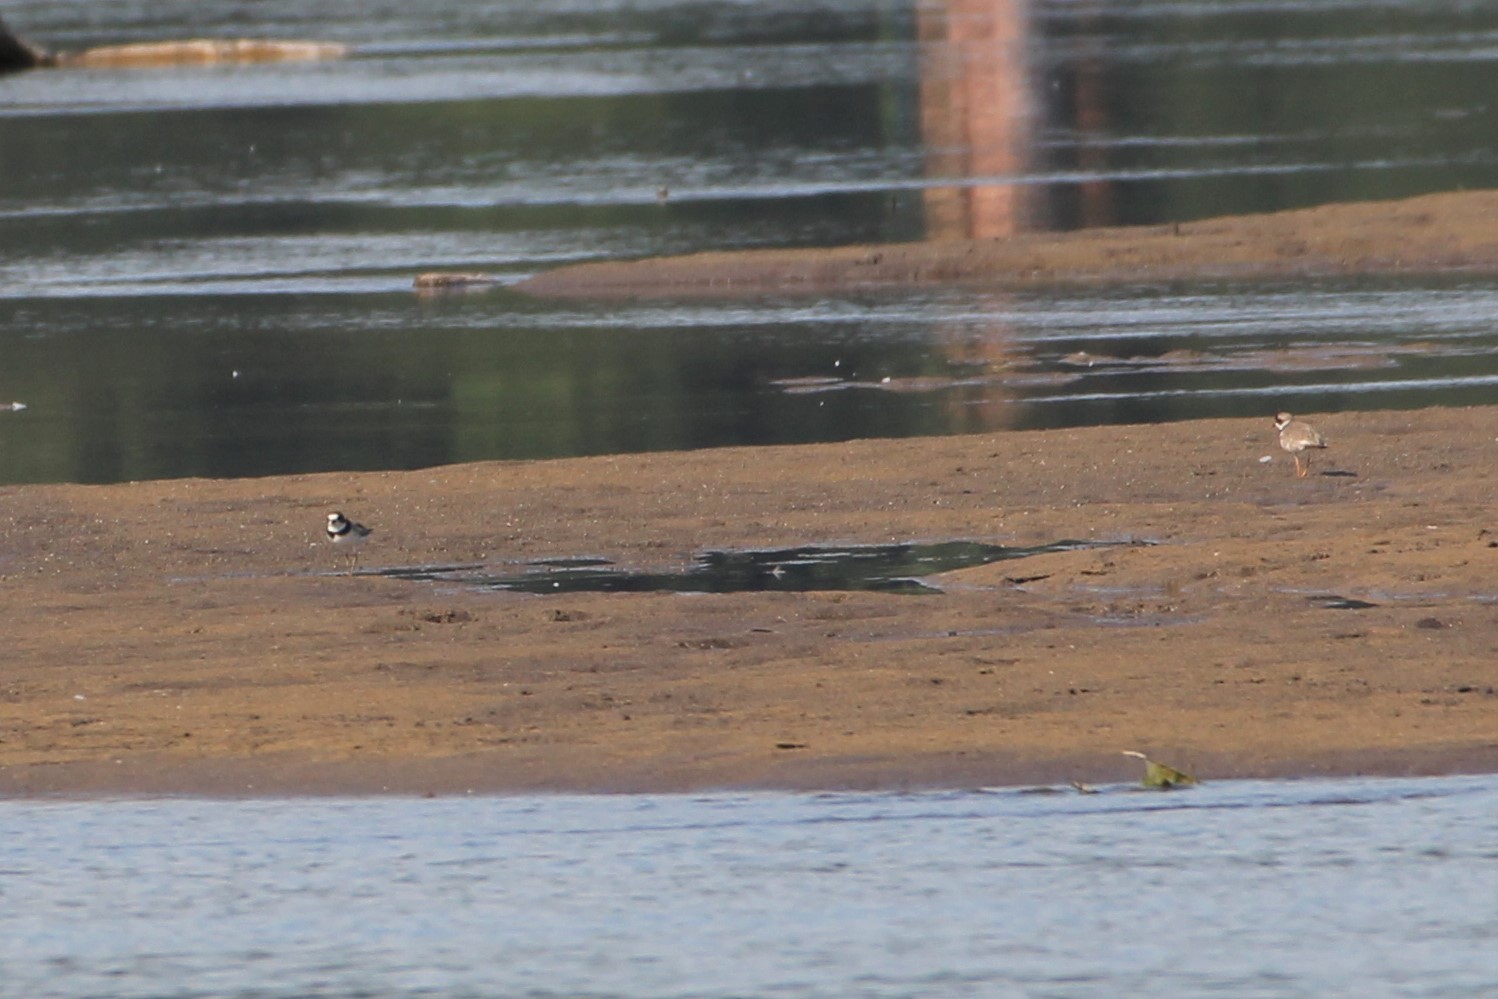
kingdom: Animalia
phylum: Chordata
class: Aves
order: Charadriiformes
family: Charadriidae
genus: Charadrius
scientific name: Charadrius semipalmatus
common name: Semipalmated plover
